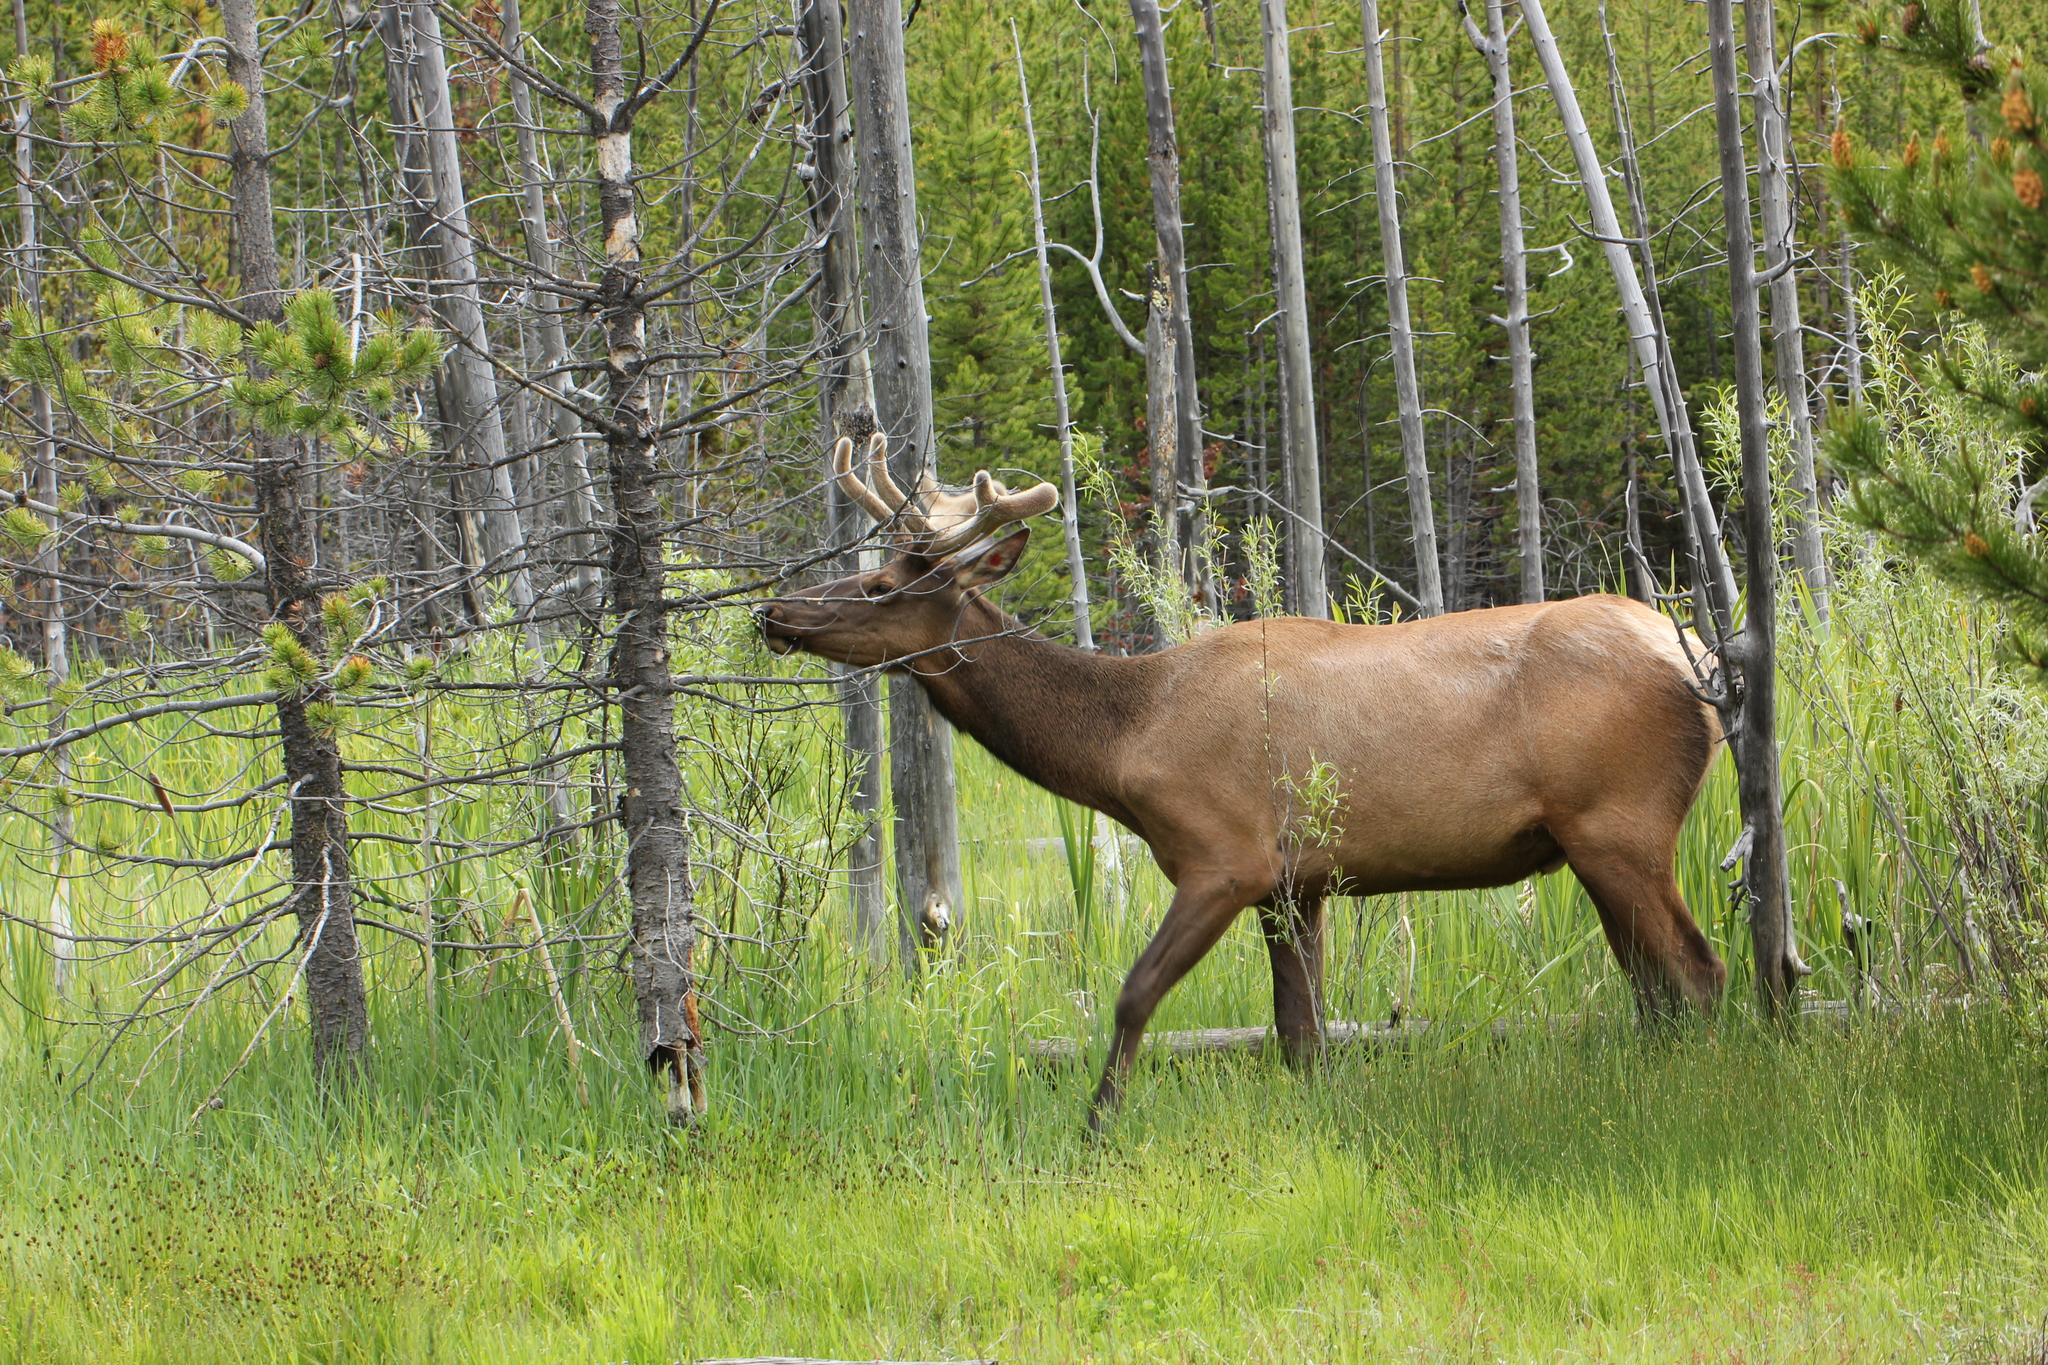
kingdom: Animalia
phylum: Chordata
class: Mammalia
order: Artiodactyla
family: Cervidae
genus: Cervus
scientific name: Cervus elaphus
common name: Red deer
